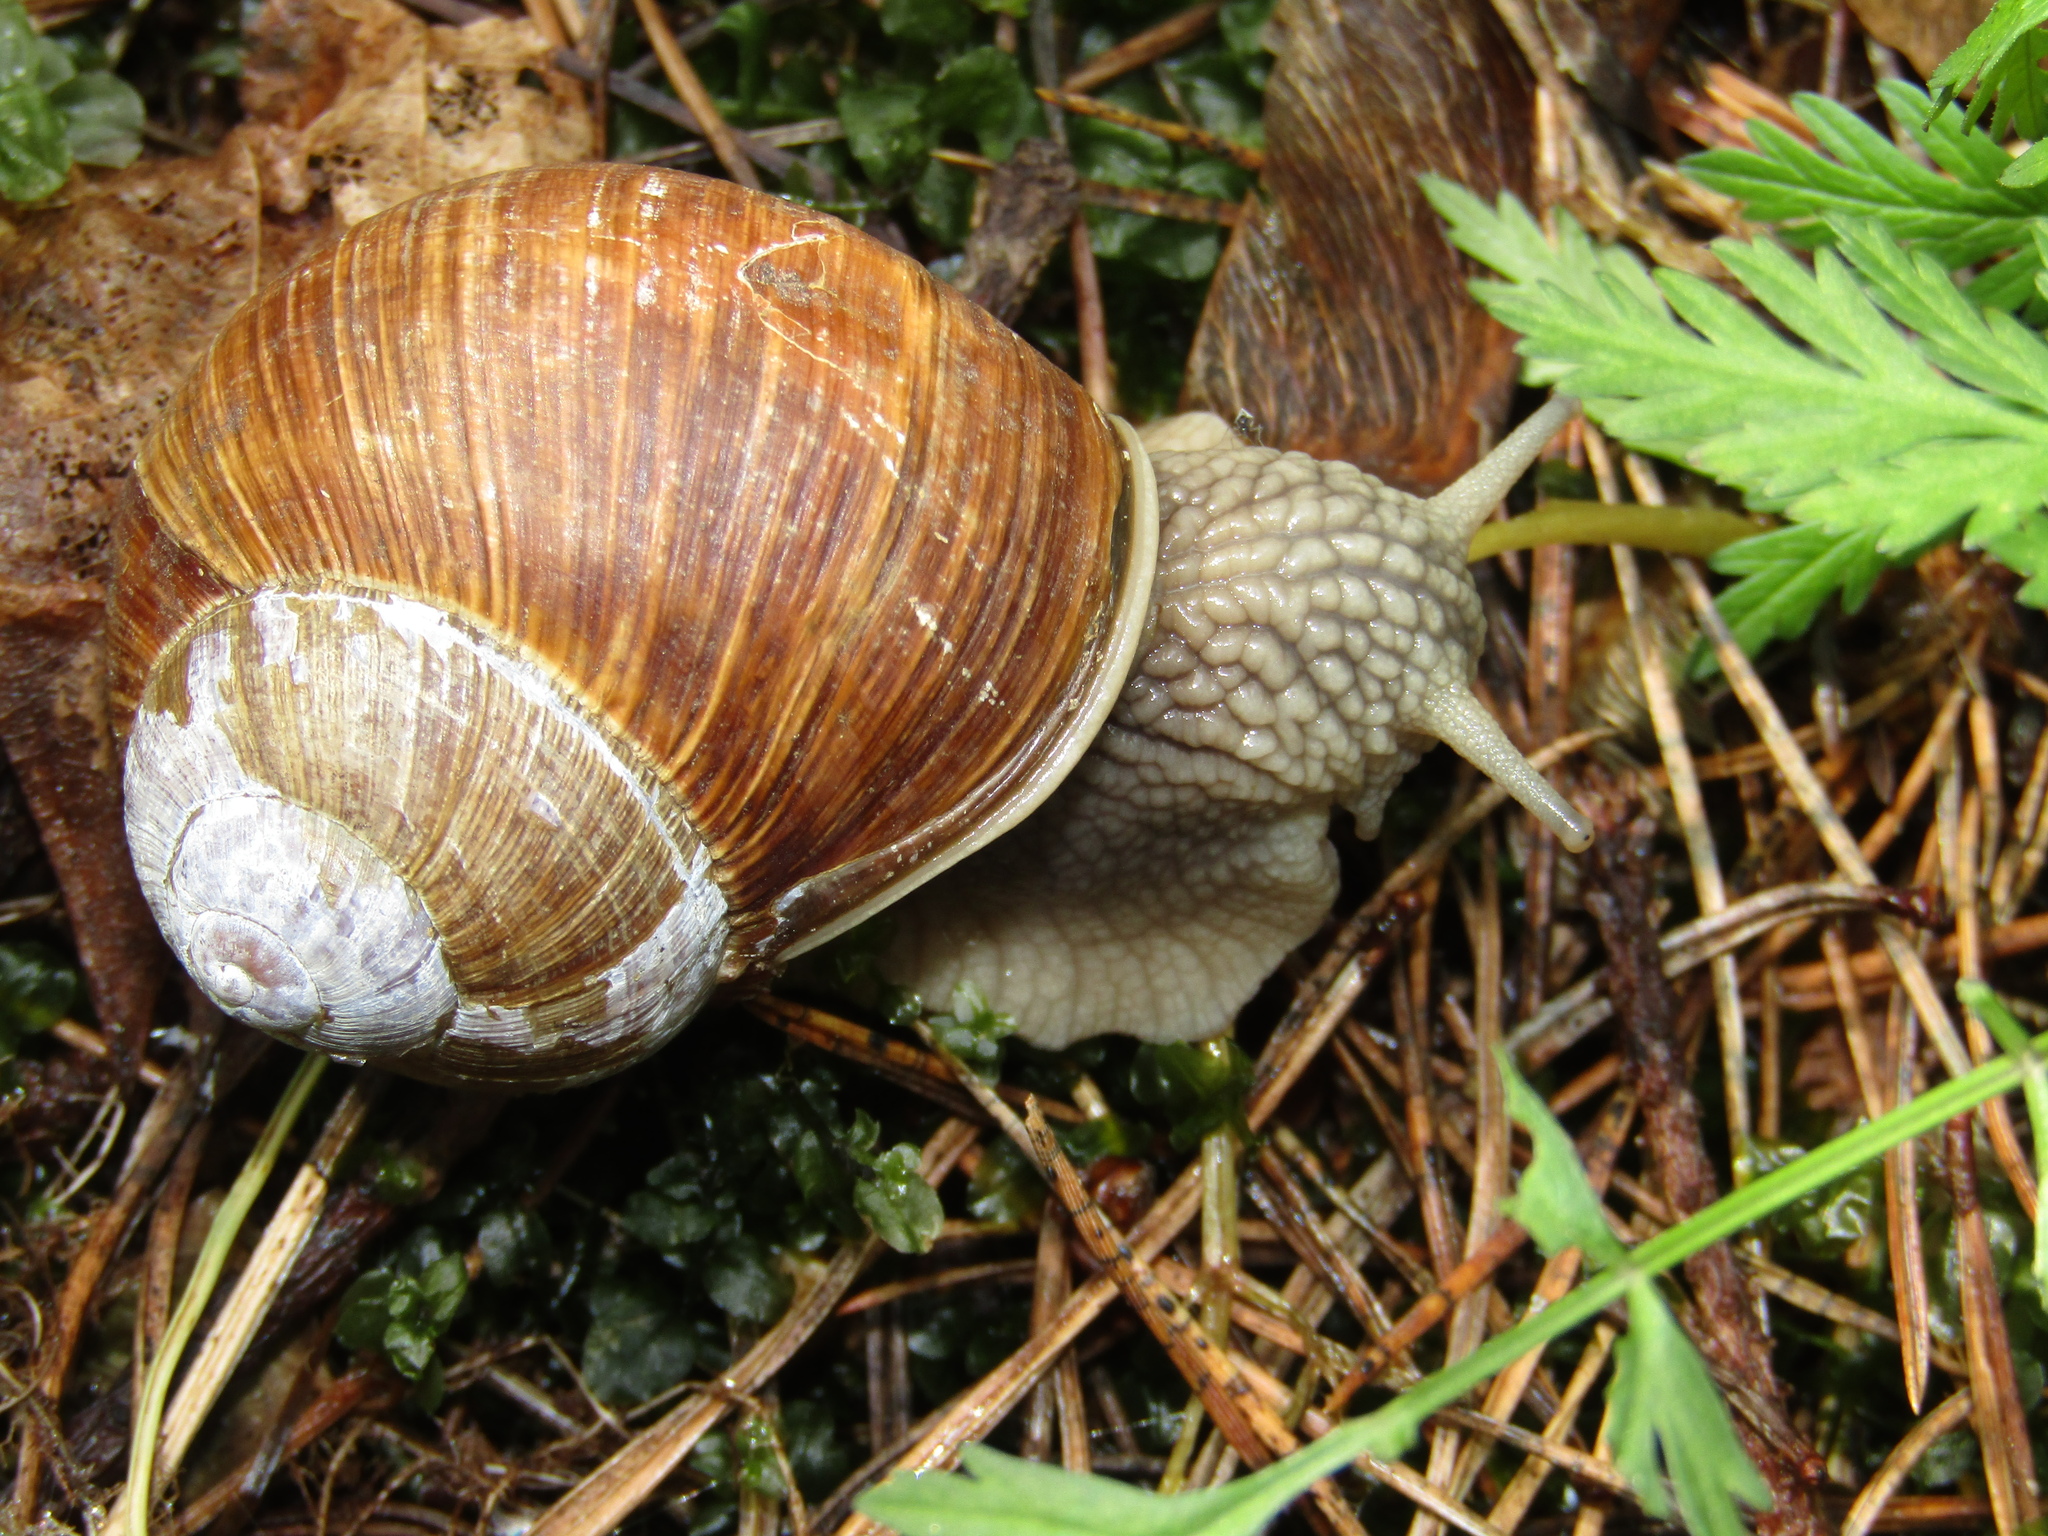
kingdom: Animalia
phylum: Mollusca
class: Gastropoda
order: Stylommatophora
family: Helicidae
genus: Helix
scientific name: Helix pomatia
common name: Roman snail
